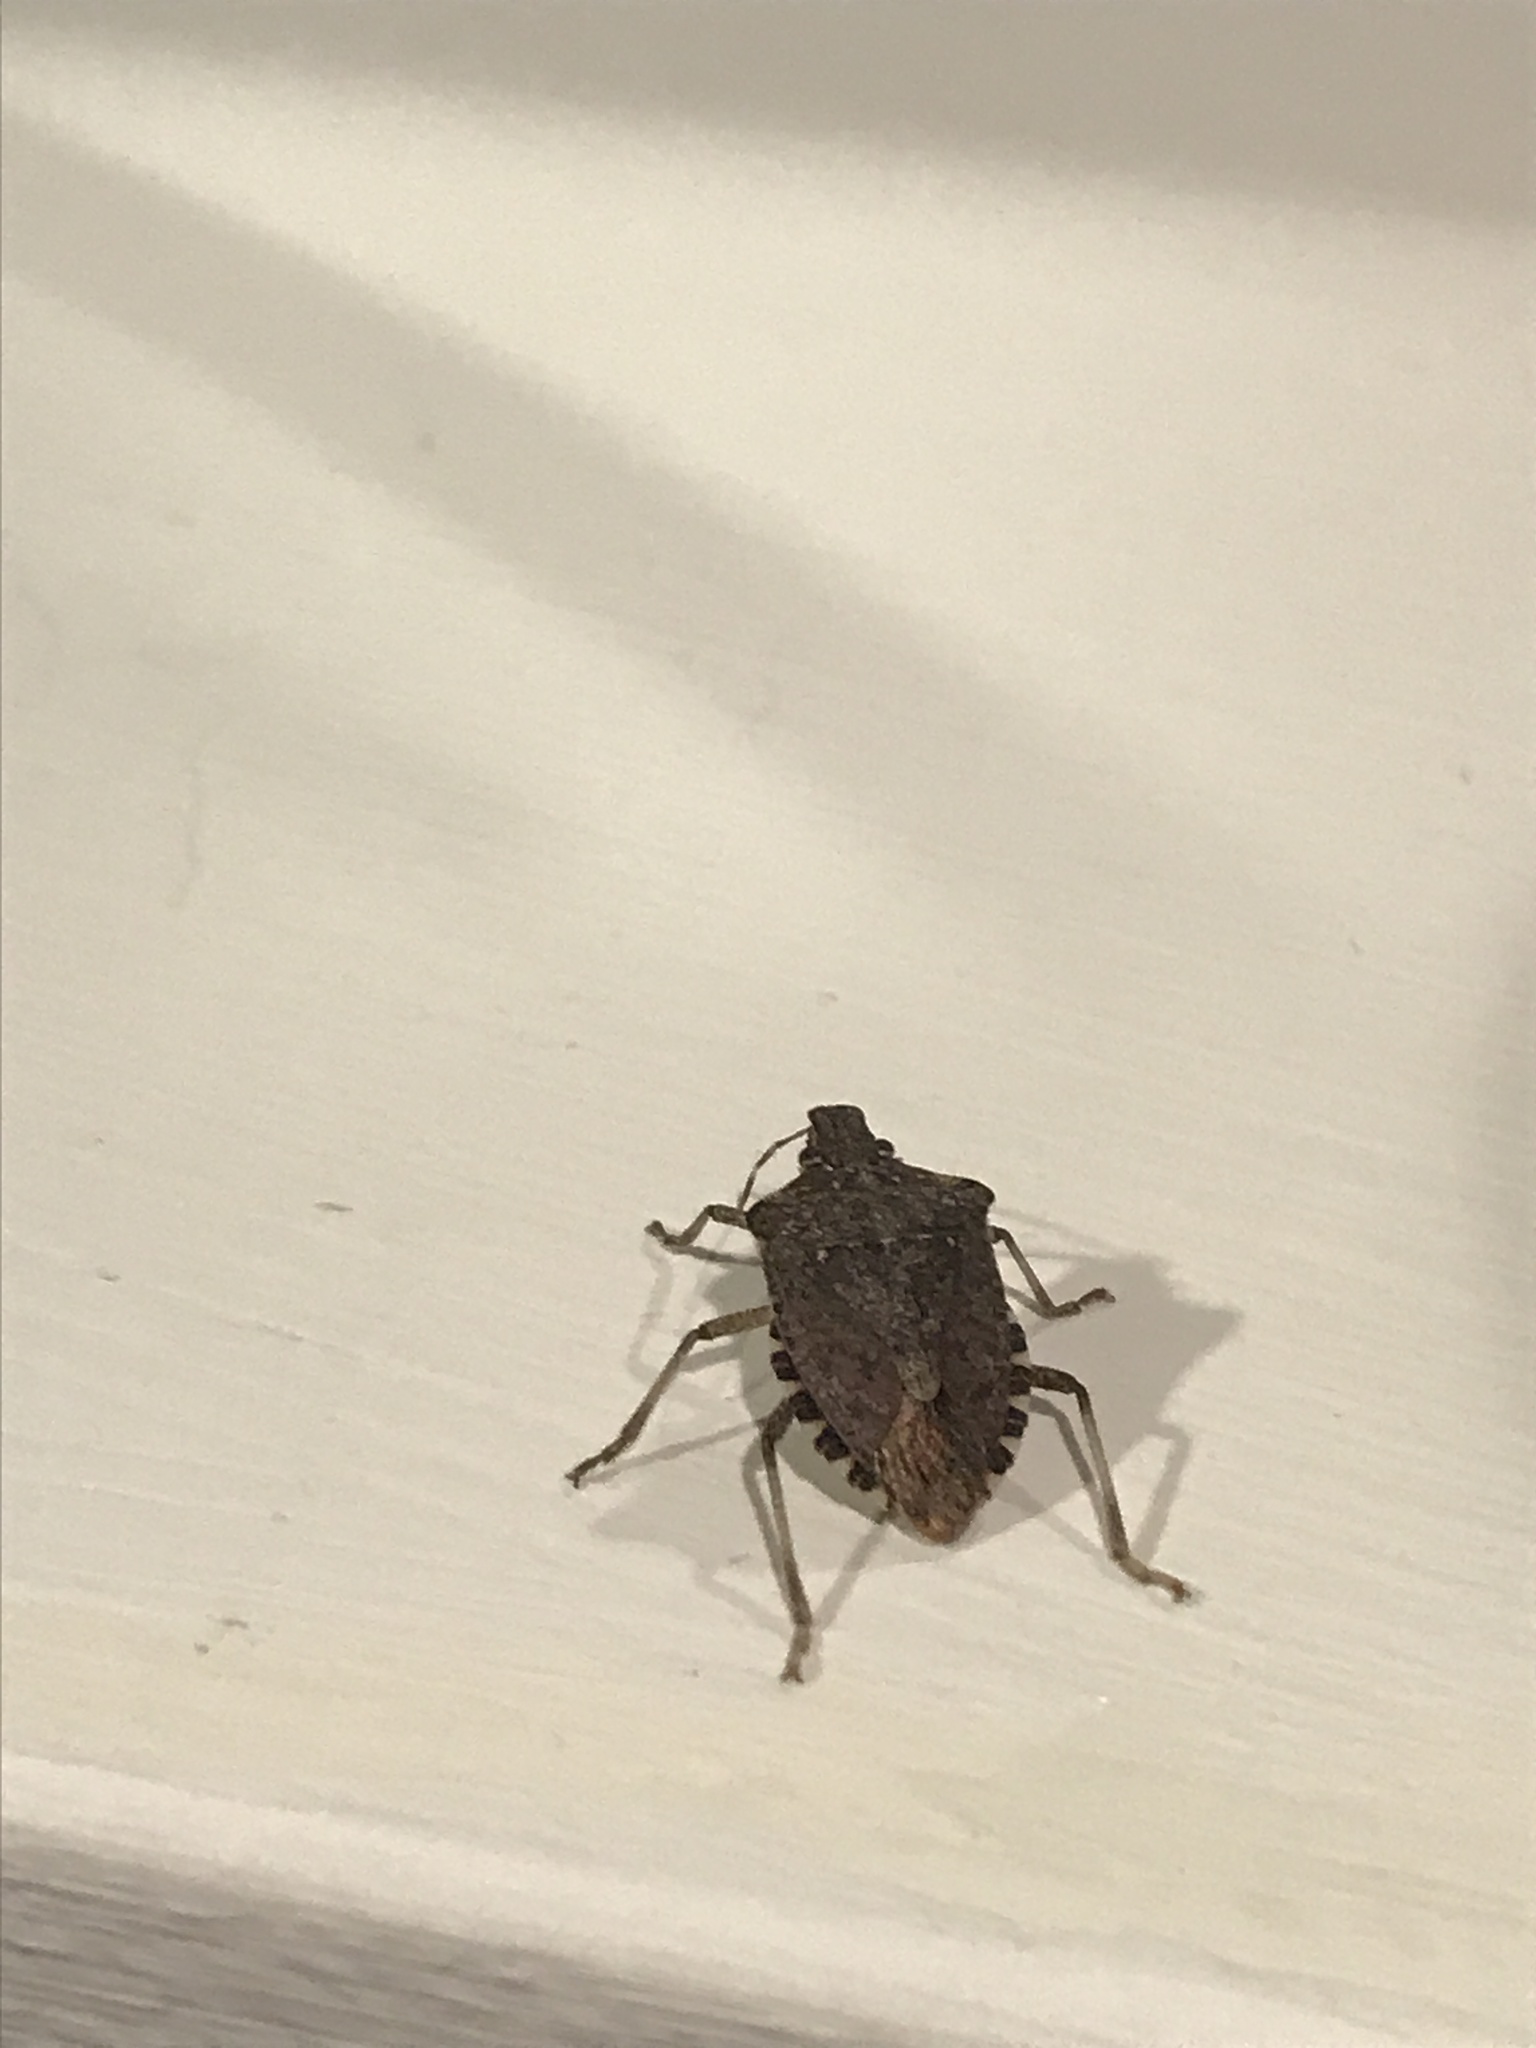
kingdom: Animalia
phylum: Arthropoda
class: Insecta
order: Hemiptera
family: Pentatomidae
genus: Halyomorpha
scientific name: Halyomorpha halys
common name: Brown marmorated stink bug
